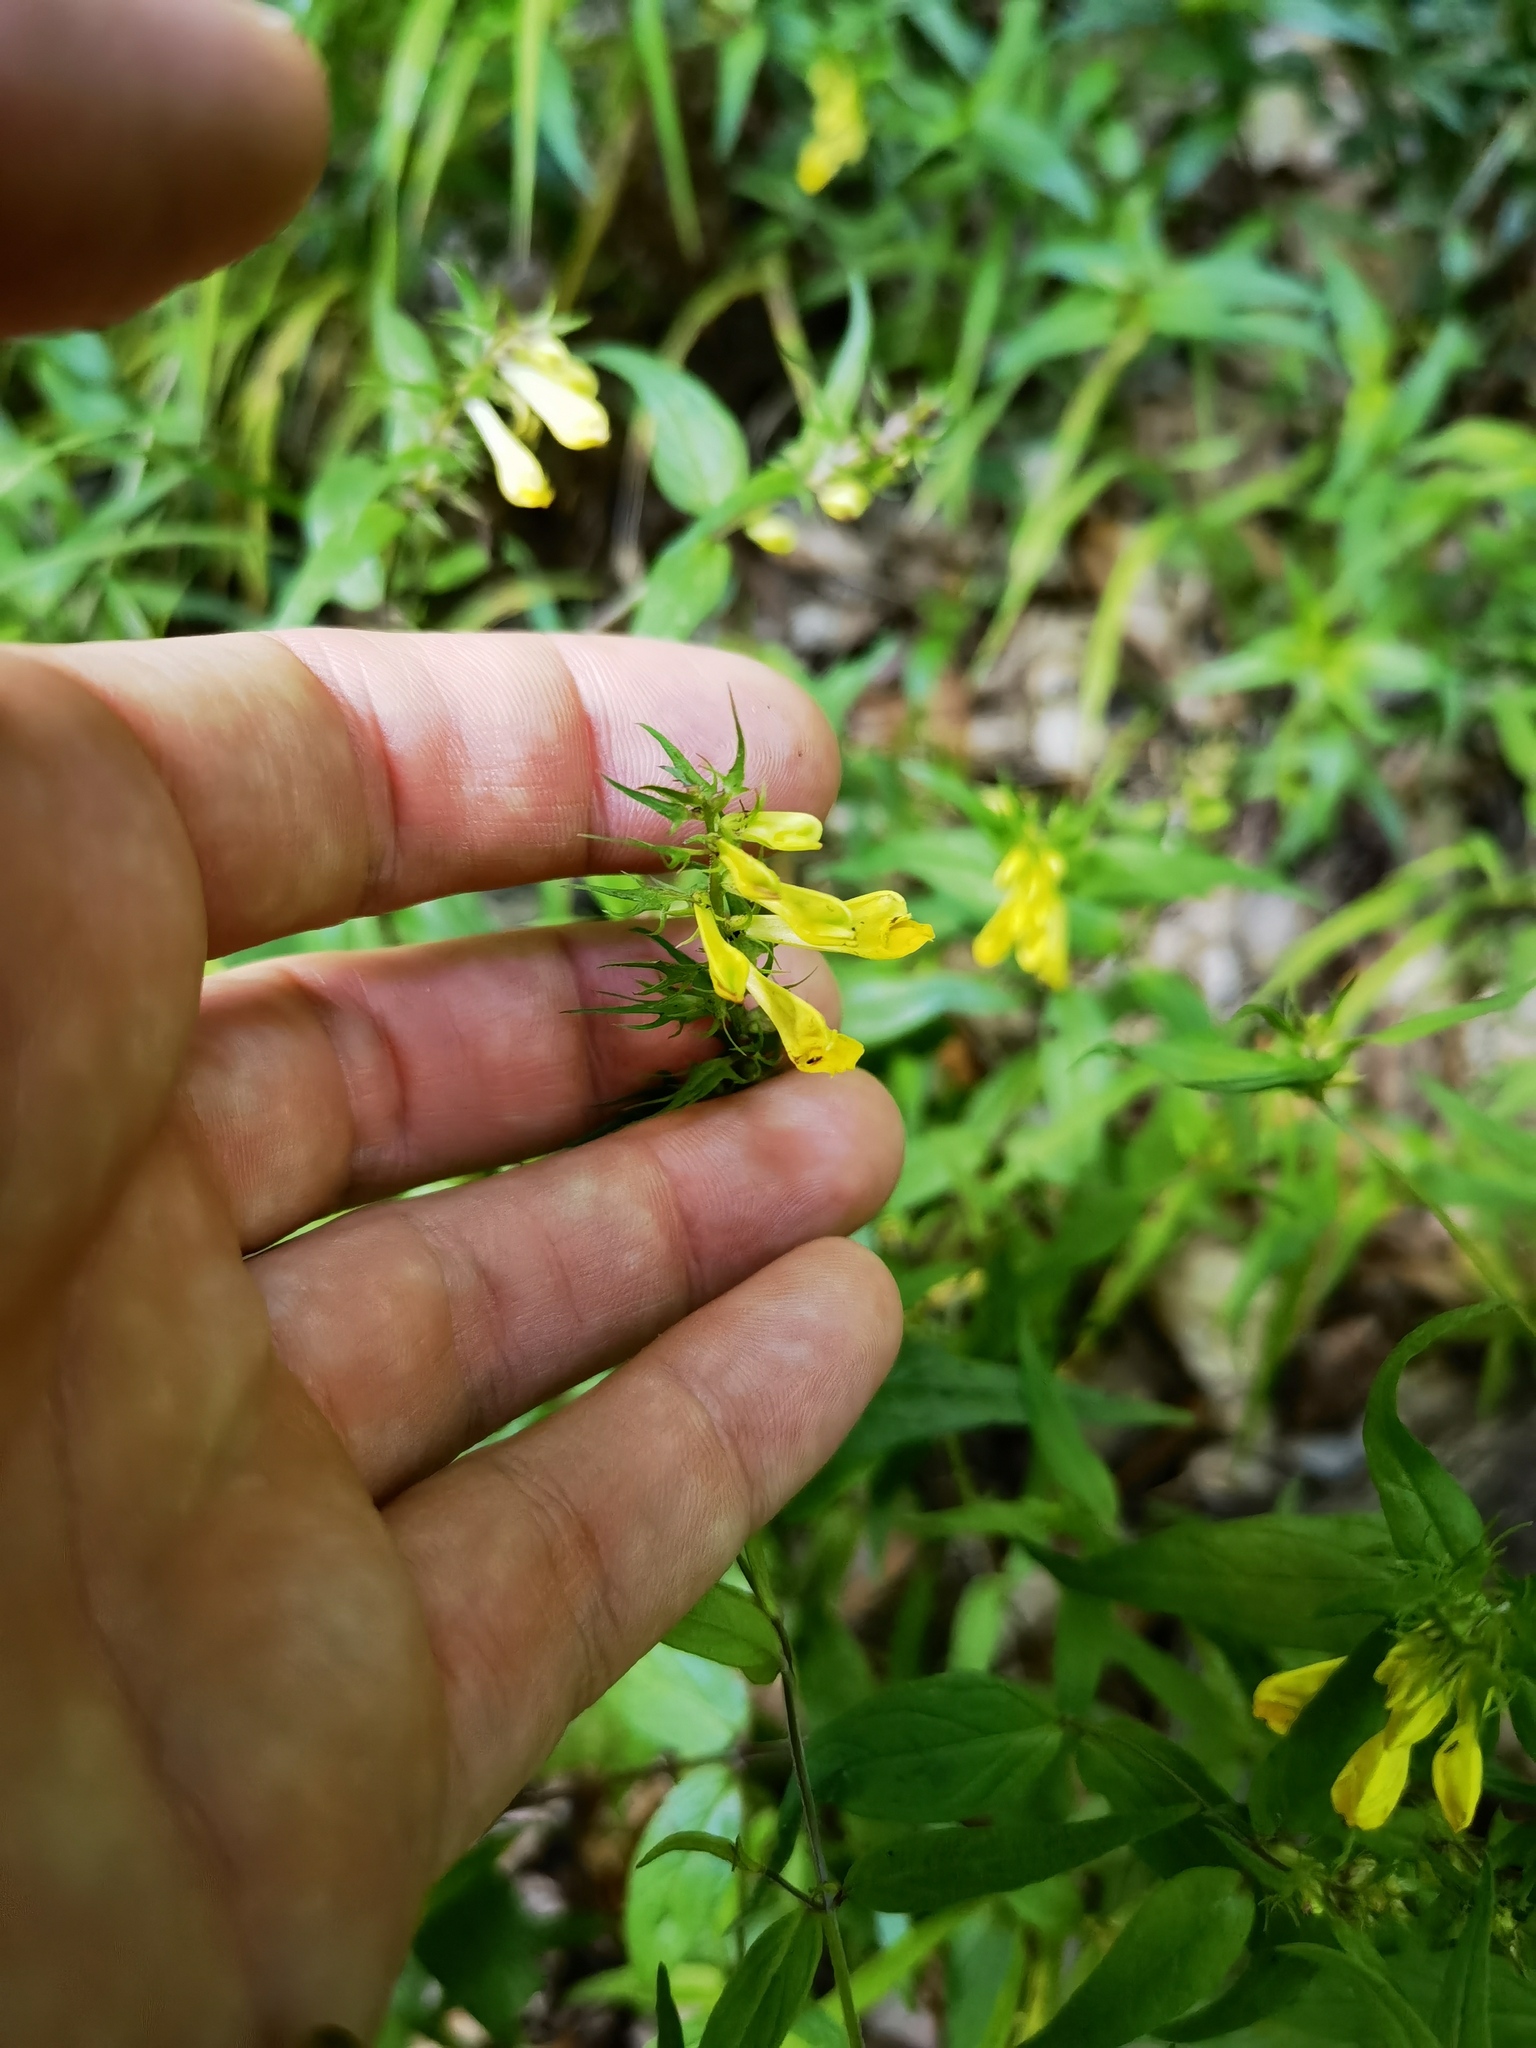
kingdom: Plantae
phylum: Tracheophyta
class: Magnoliopsida
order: Lamiales
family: Orobanchaceae
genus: Melampyrum
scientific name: Melampyrum pratense
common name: Common cow-wheat
